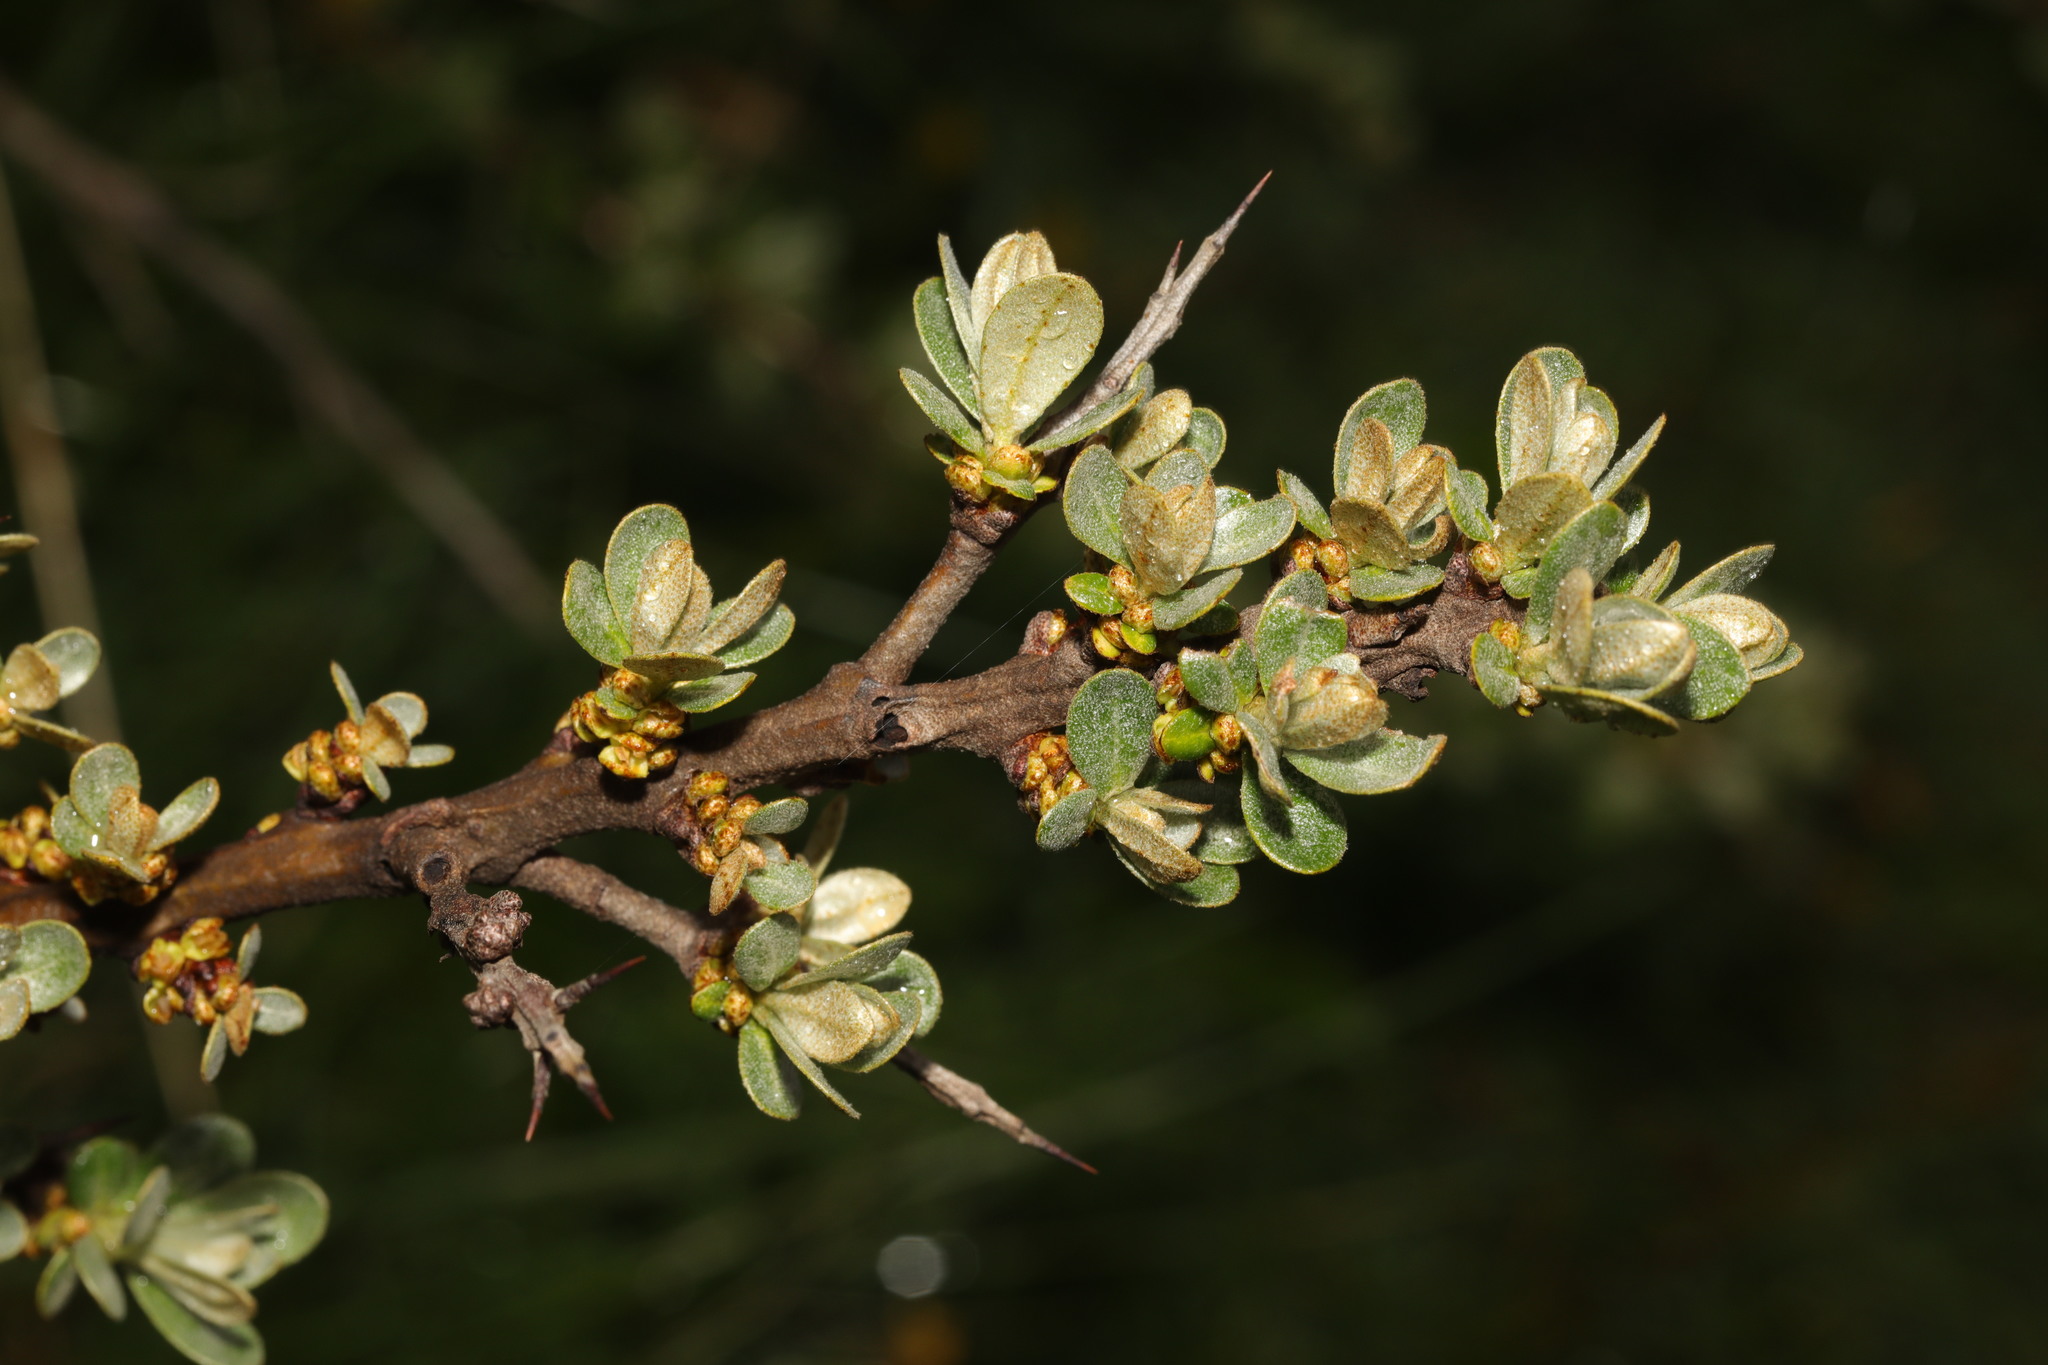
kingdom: Plantae
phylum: Tracheophyta
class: Magnoliopsida
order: Rosales
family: Elaeagnaceae
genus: Hippophae
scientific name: Hippophae rhamnoides
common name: Sea-buckthorn
